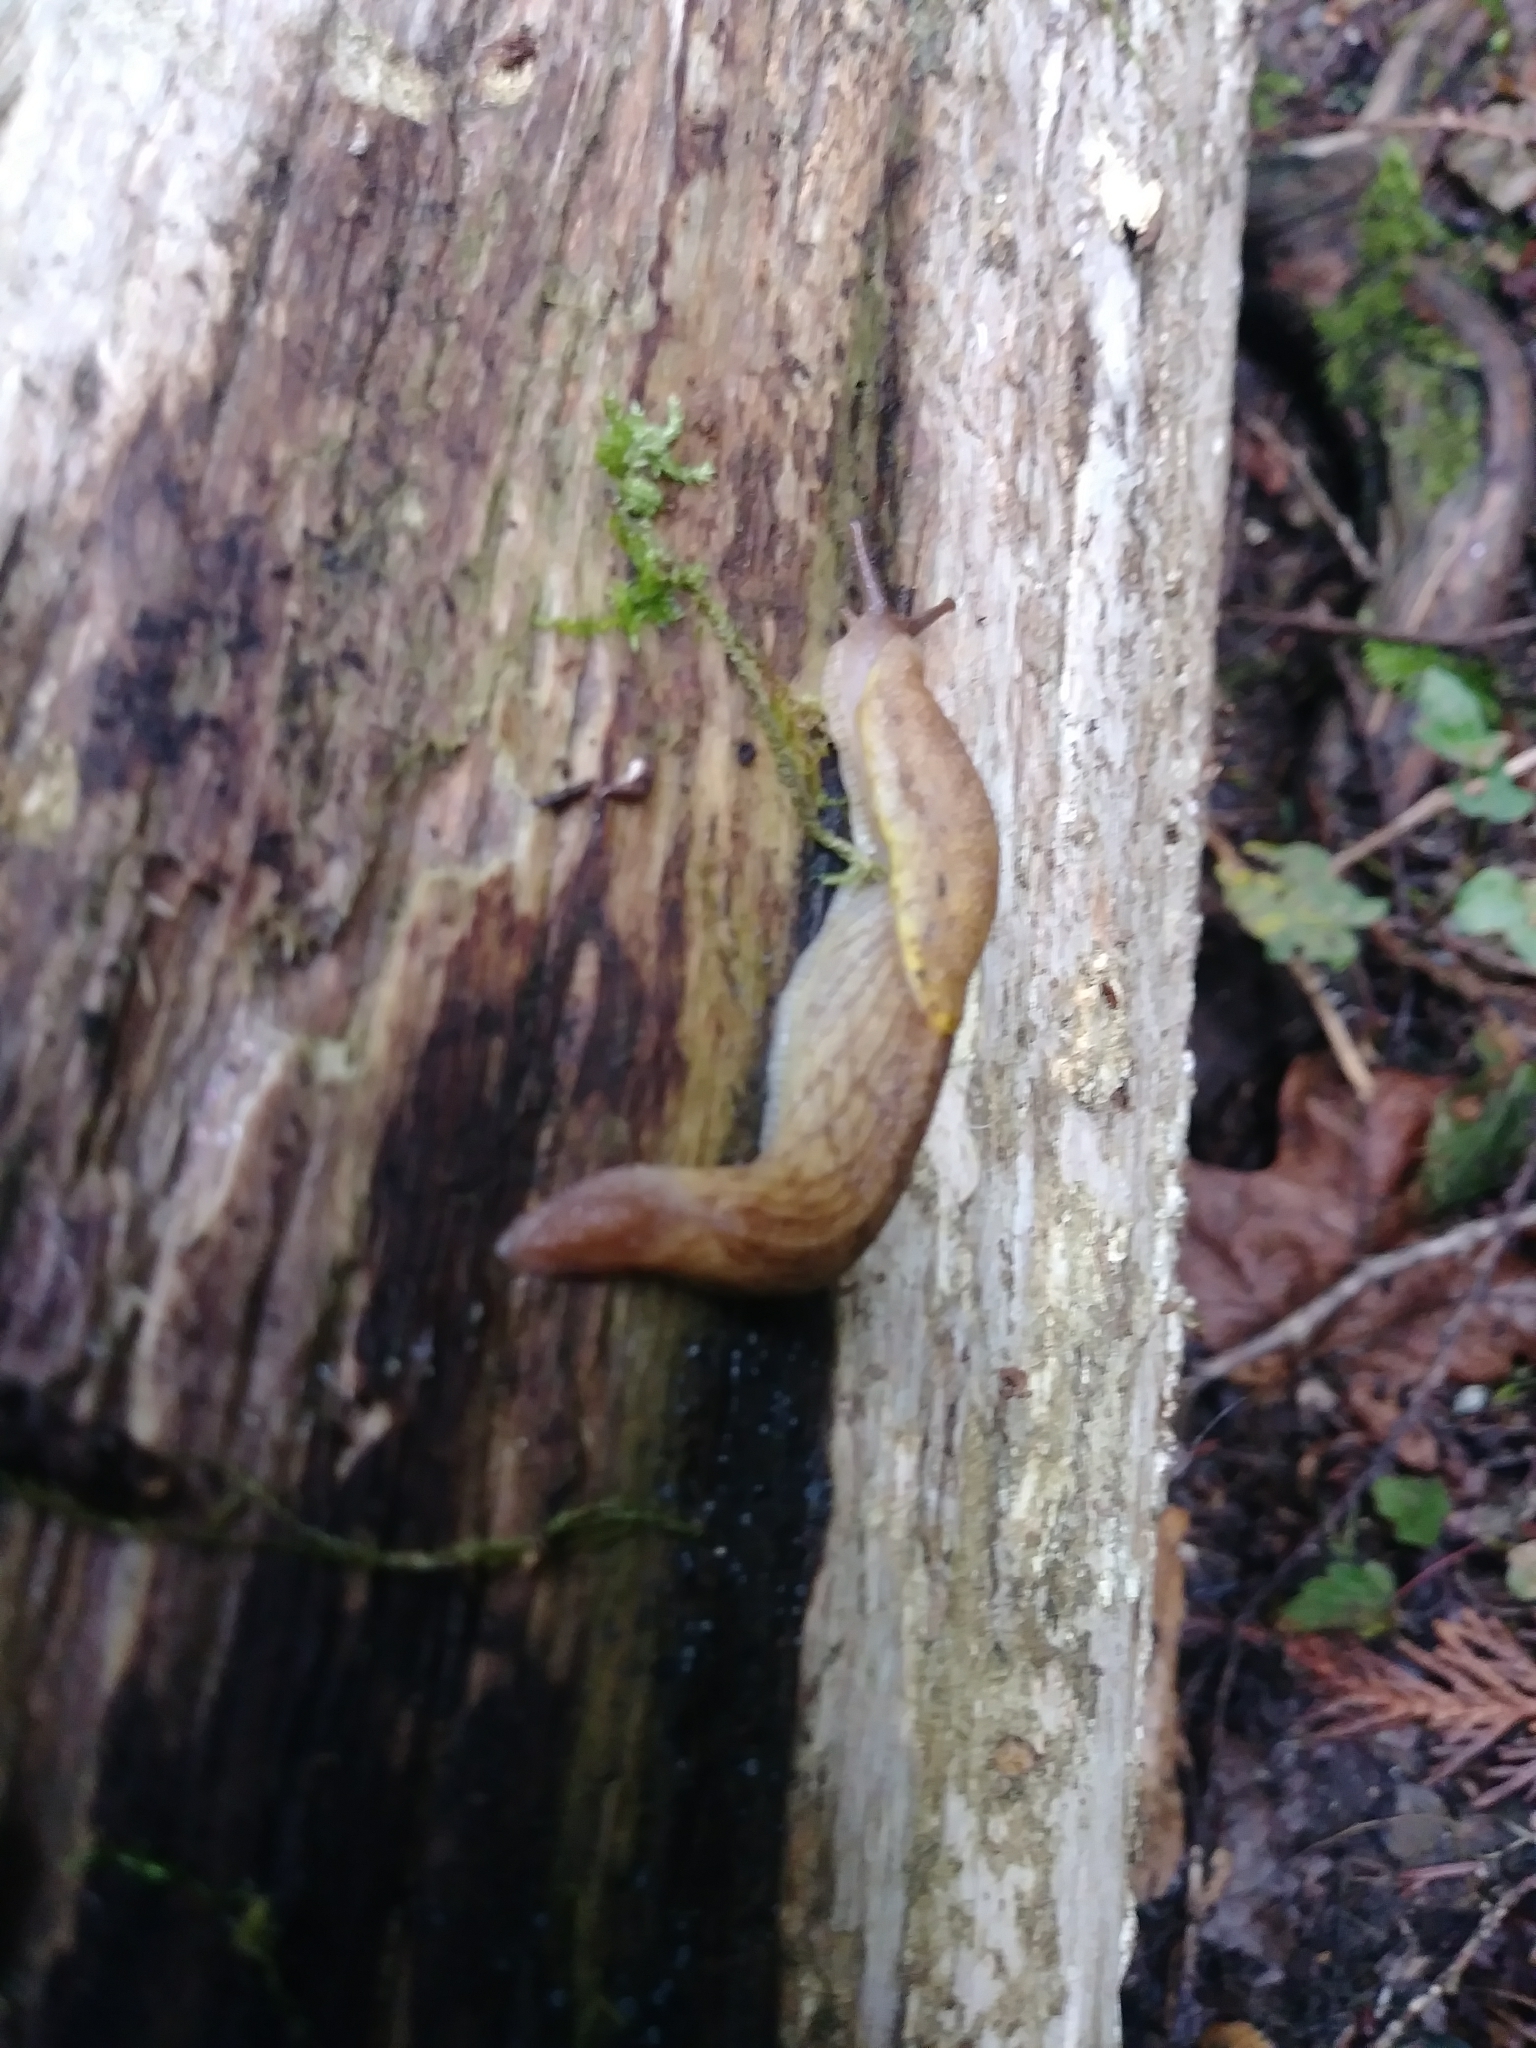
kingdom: Animalia
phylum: Mollusca
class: Gastropoda
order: Stylommatophora
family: Ariolimacidae
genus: Prophysaon
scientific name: Prophysaon foliolatum
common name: Yellow-bordered taildropper
